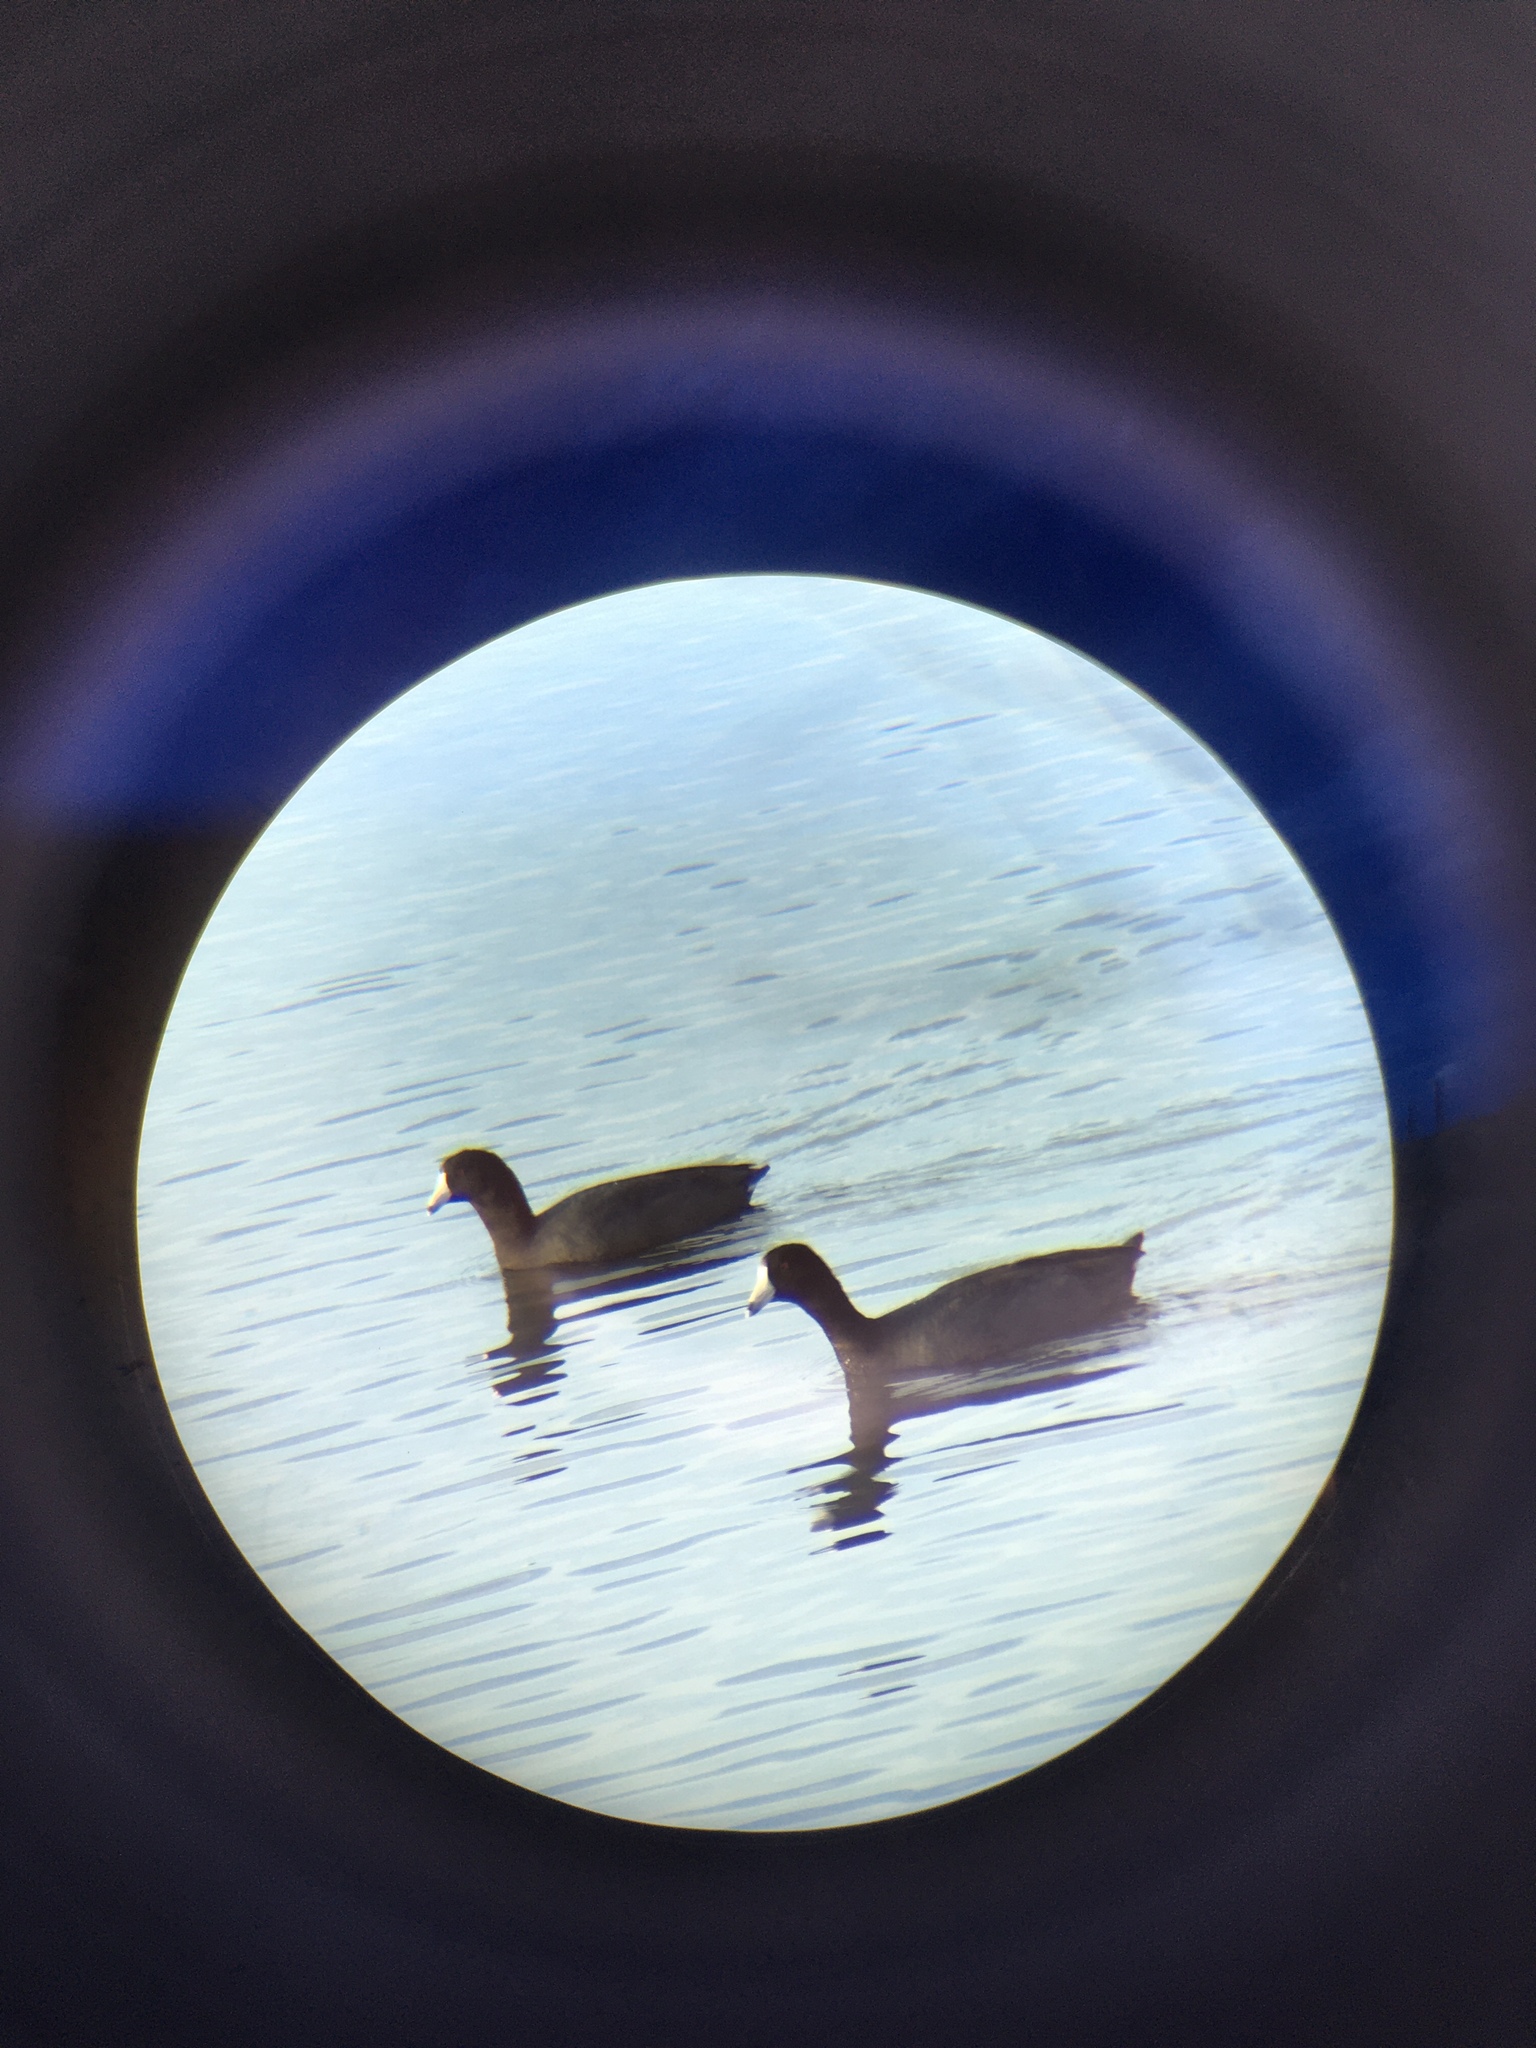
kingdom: Animalia
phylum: Chordata
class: Aves
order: Gruiformes
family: Rallidae
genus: Fulica
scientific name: Fulica americana
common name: American coot
